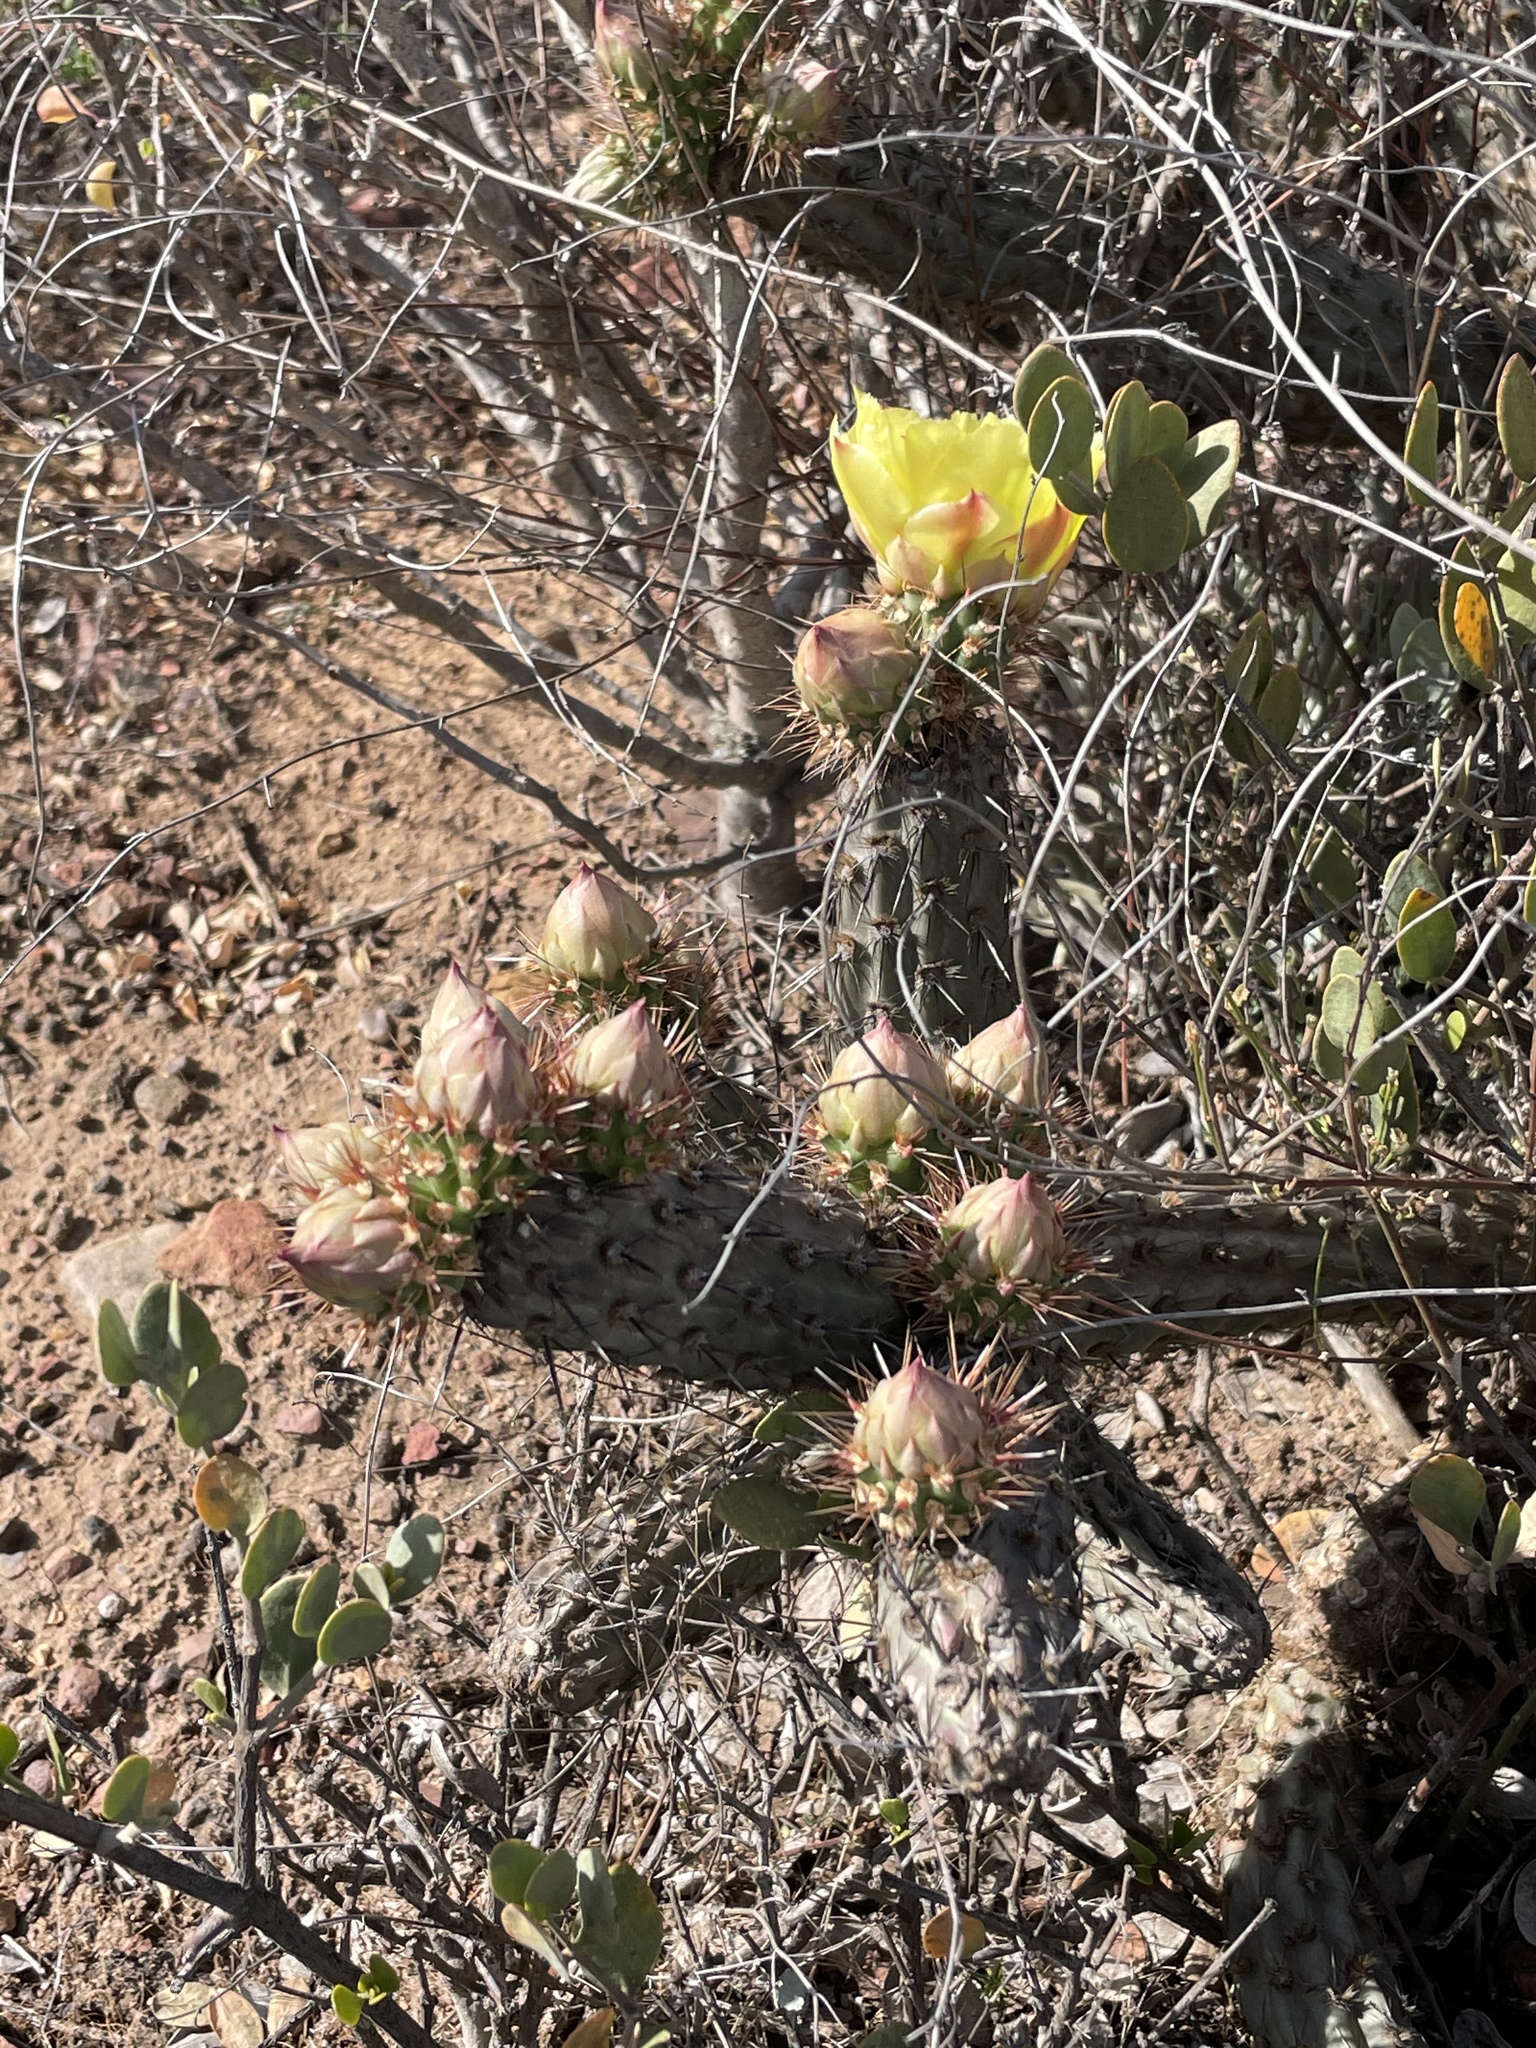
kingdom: Plantae
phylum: Tracheophyta
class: Magnoliopsida
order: Caryophyllales
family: Cactaceae
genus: Cylindropuntia
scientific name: Cylindropuntia californica
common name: Snake cholla
